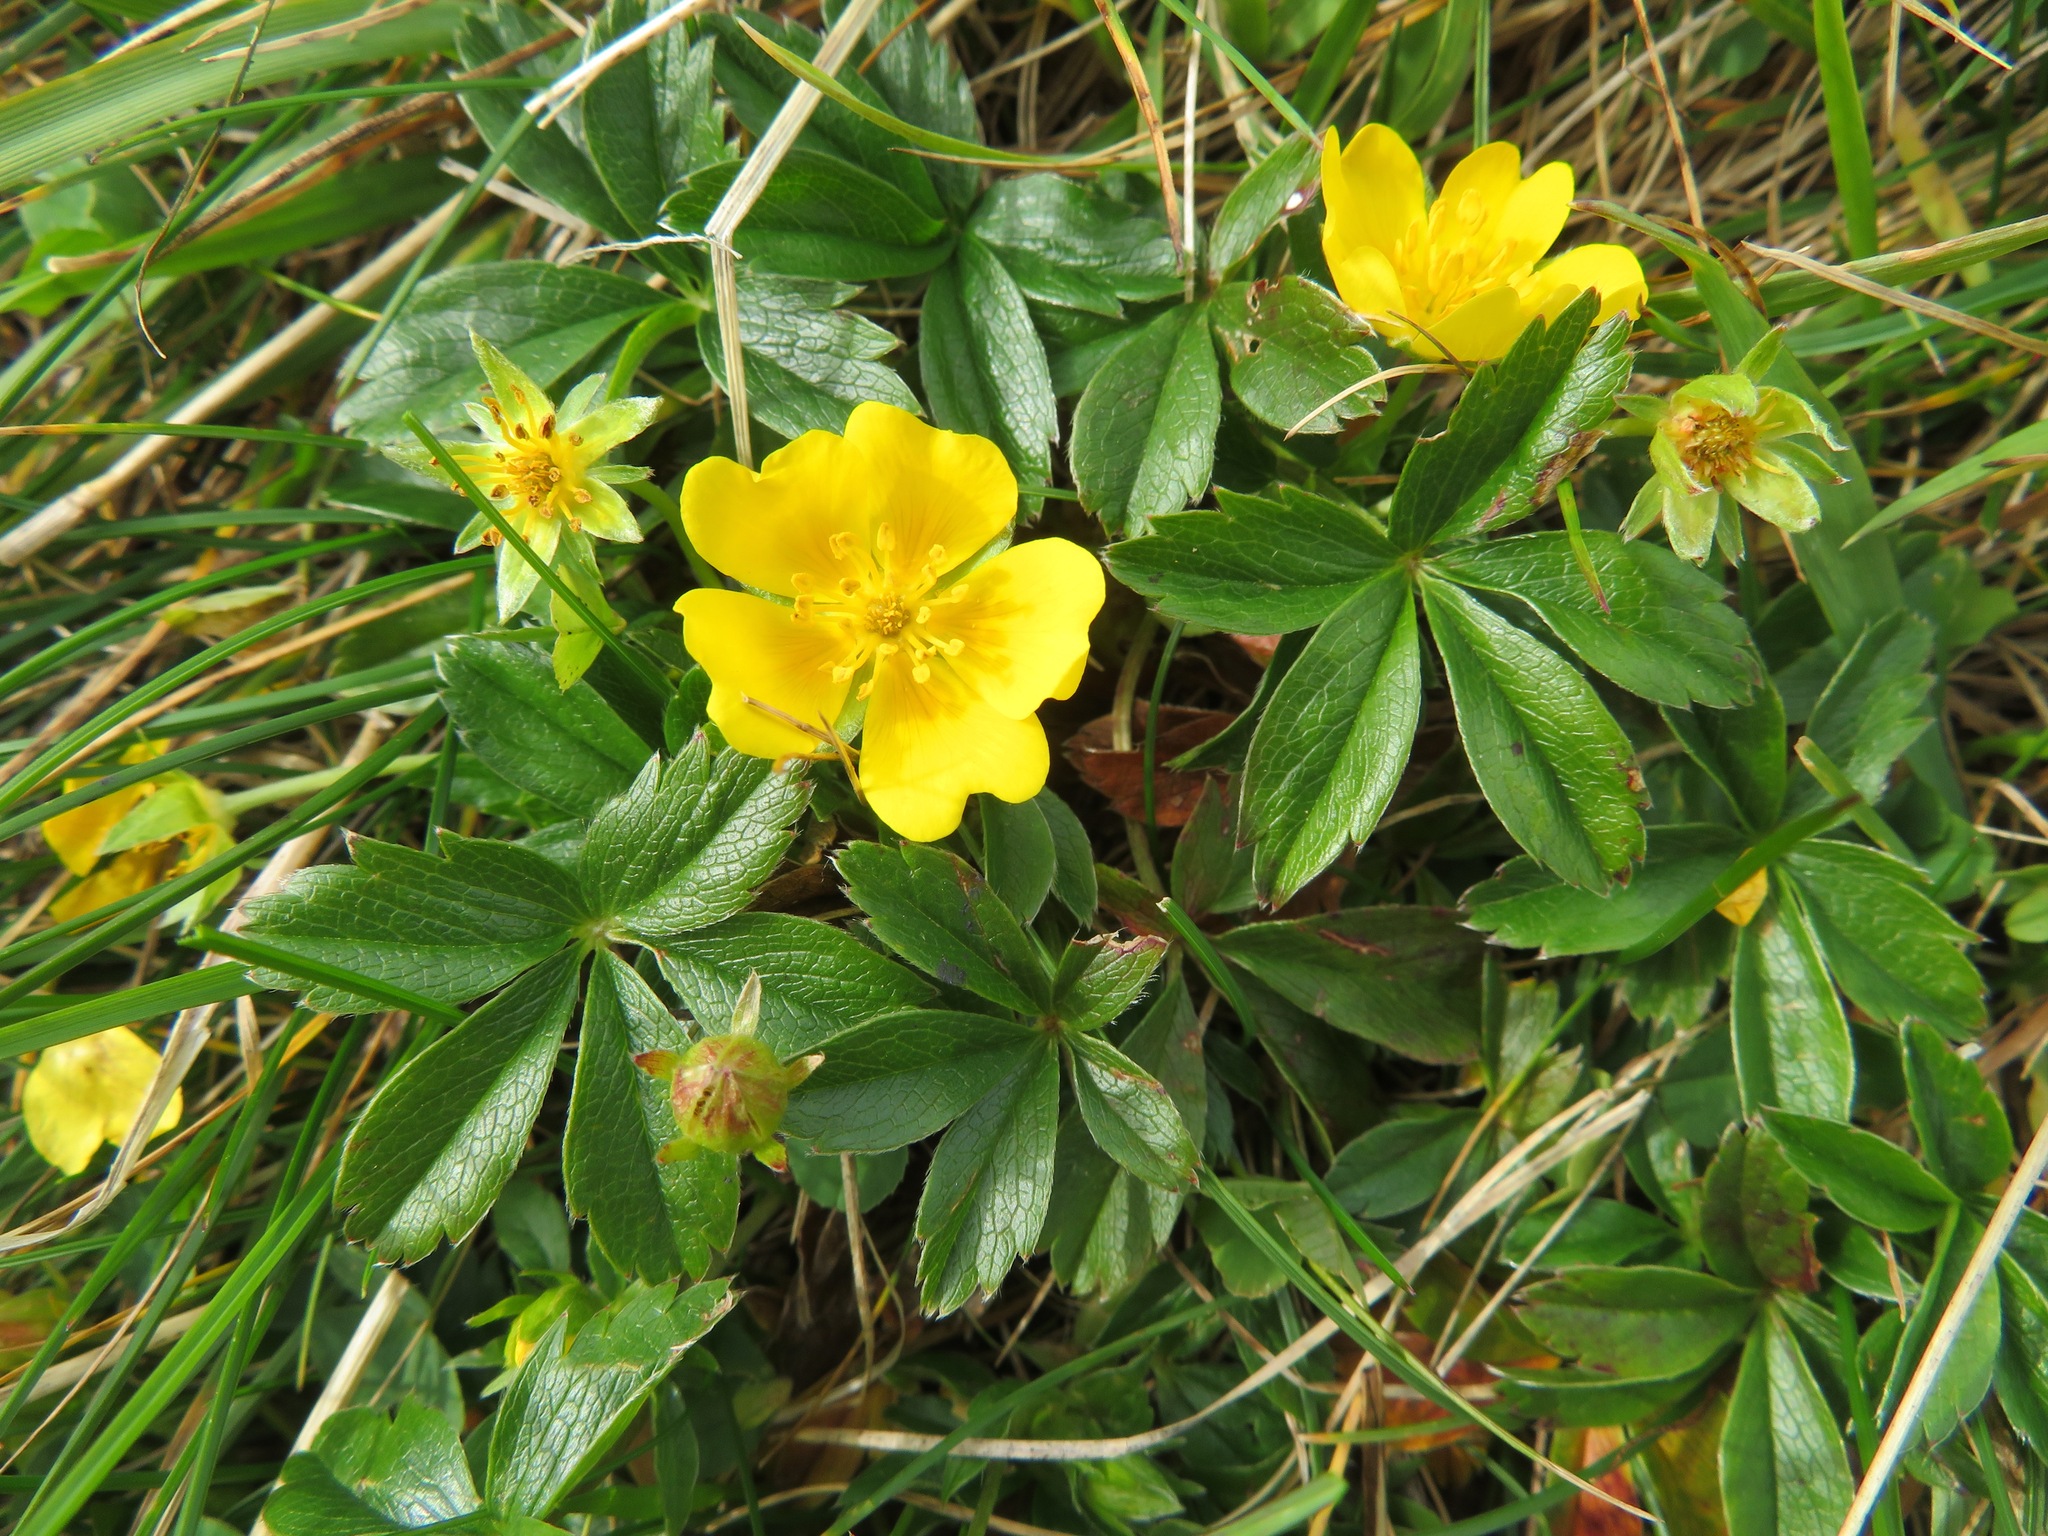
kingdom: Plantae
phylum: Tracheophyta
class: Magnoliopsida
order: Rosales
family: Rosaceae
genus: Potentilla
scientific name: Potentilla aurea
